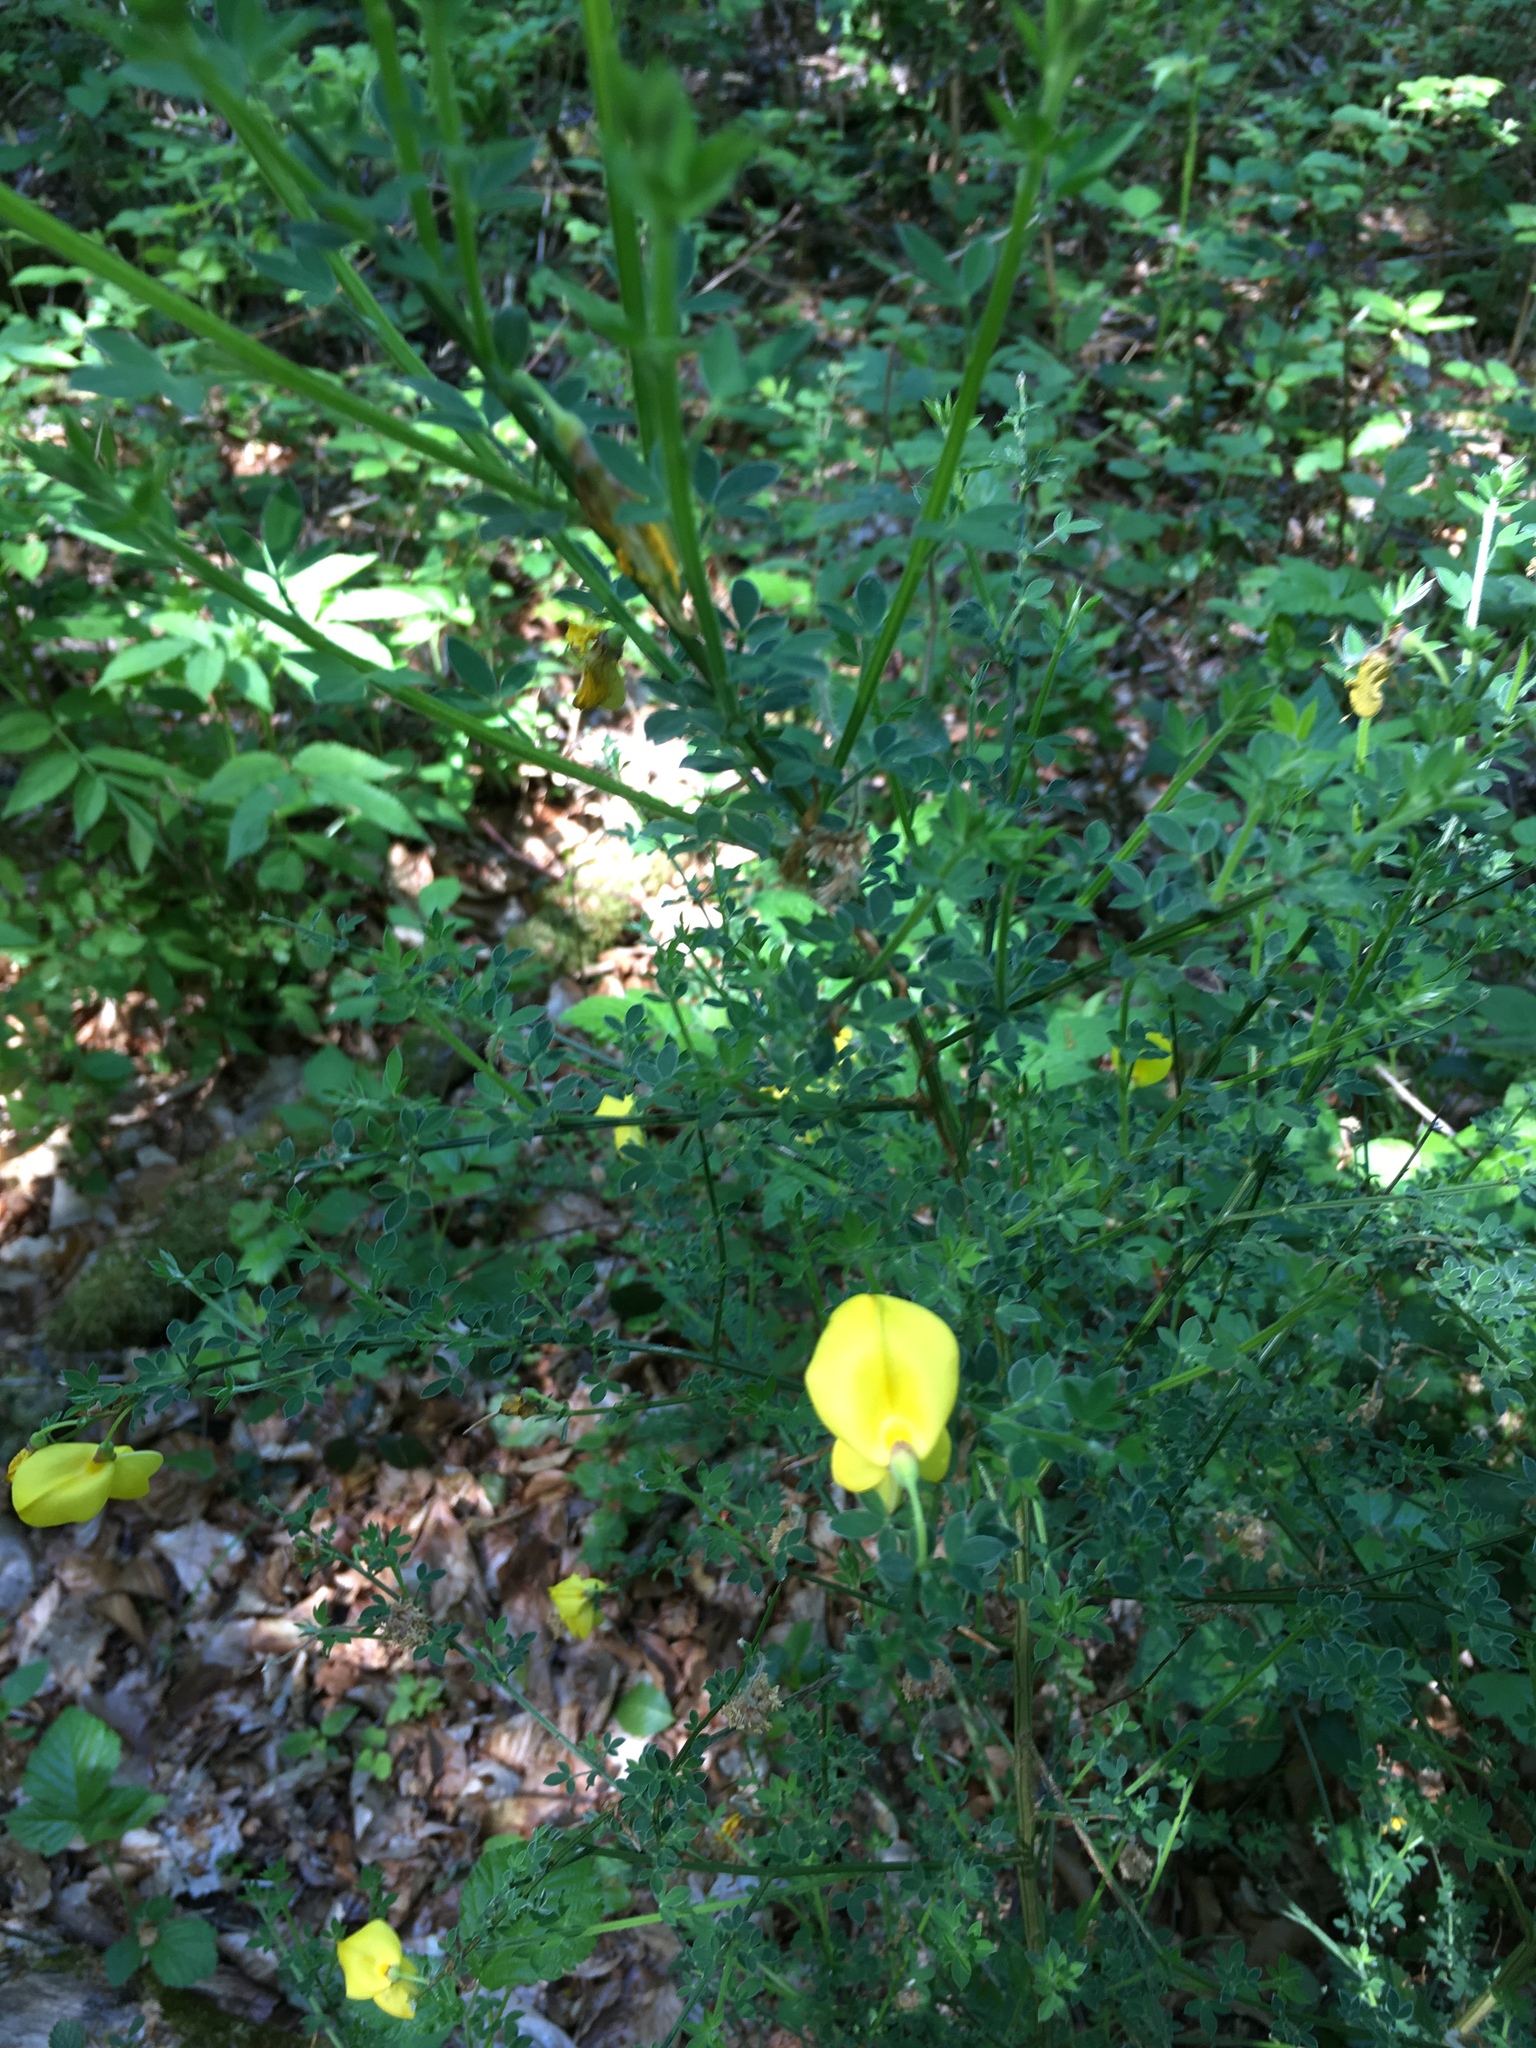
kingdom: Plantae
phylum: Tracheophyta
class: Magnoliopsida
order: Fabales
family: Fabaceae
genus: Cytisus
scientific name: Cytisus scoparius
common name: Scotch broom
